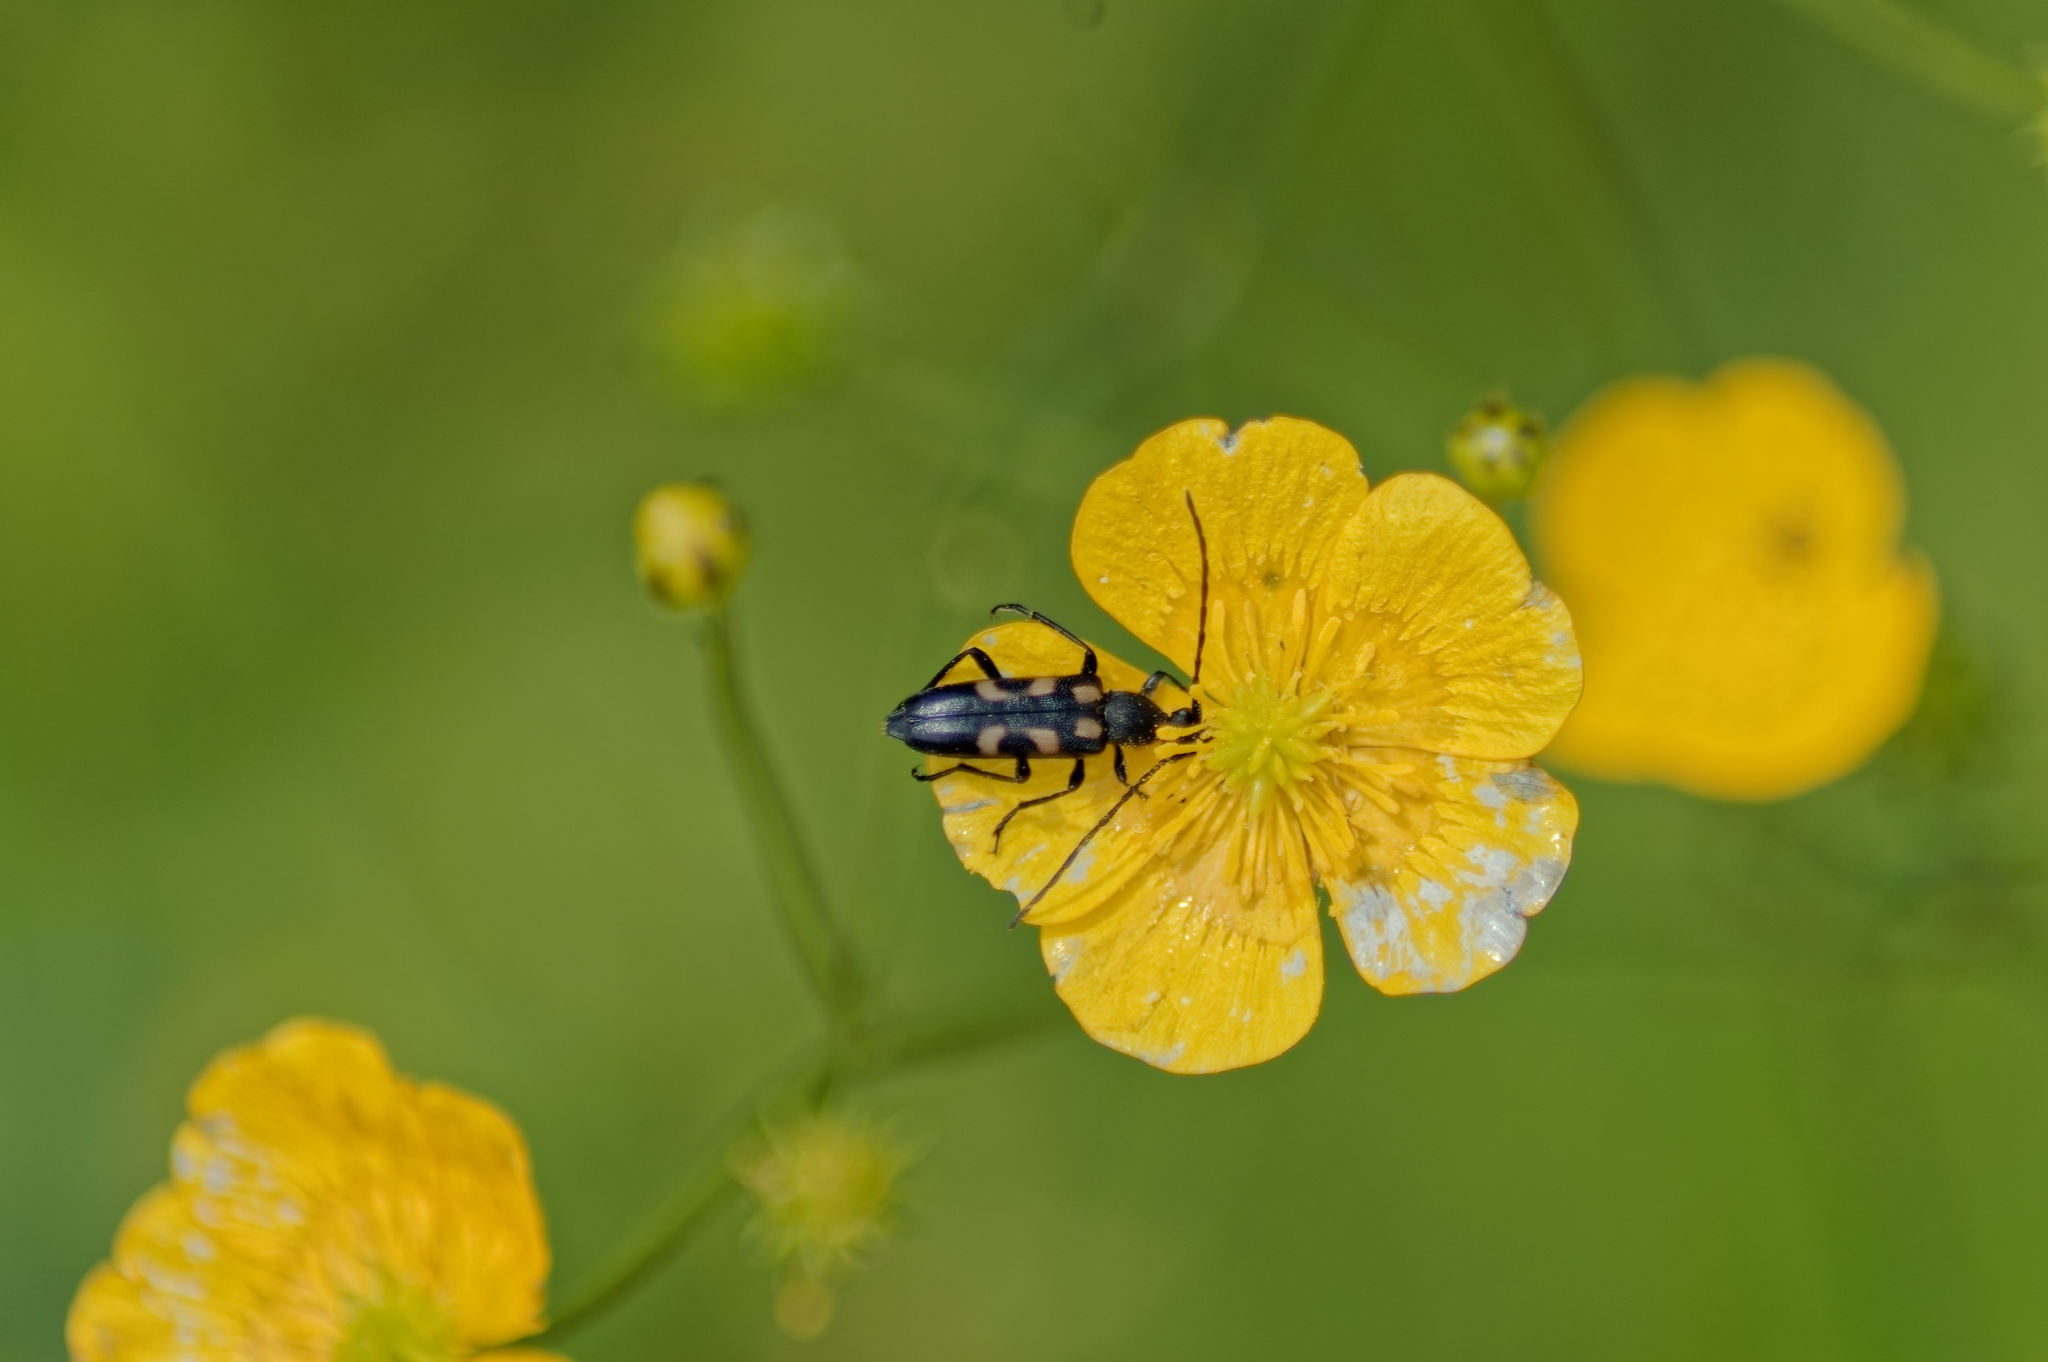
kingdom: Animalia
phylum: Arthropoda
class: Insecta
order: Coleoptera
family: Cerambycidae
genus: Anoplodera
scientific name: Anoplodera sexguttata
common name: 6 spotted longhorn
